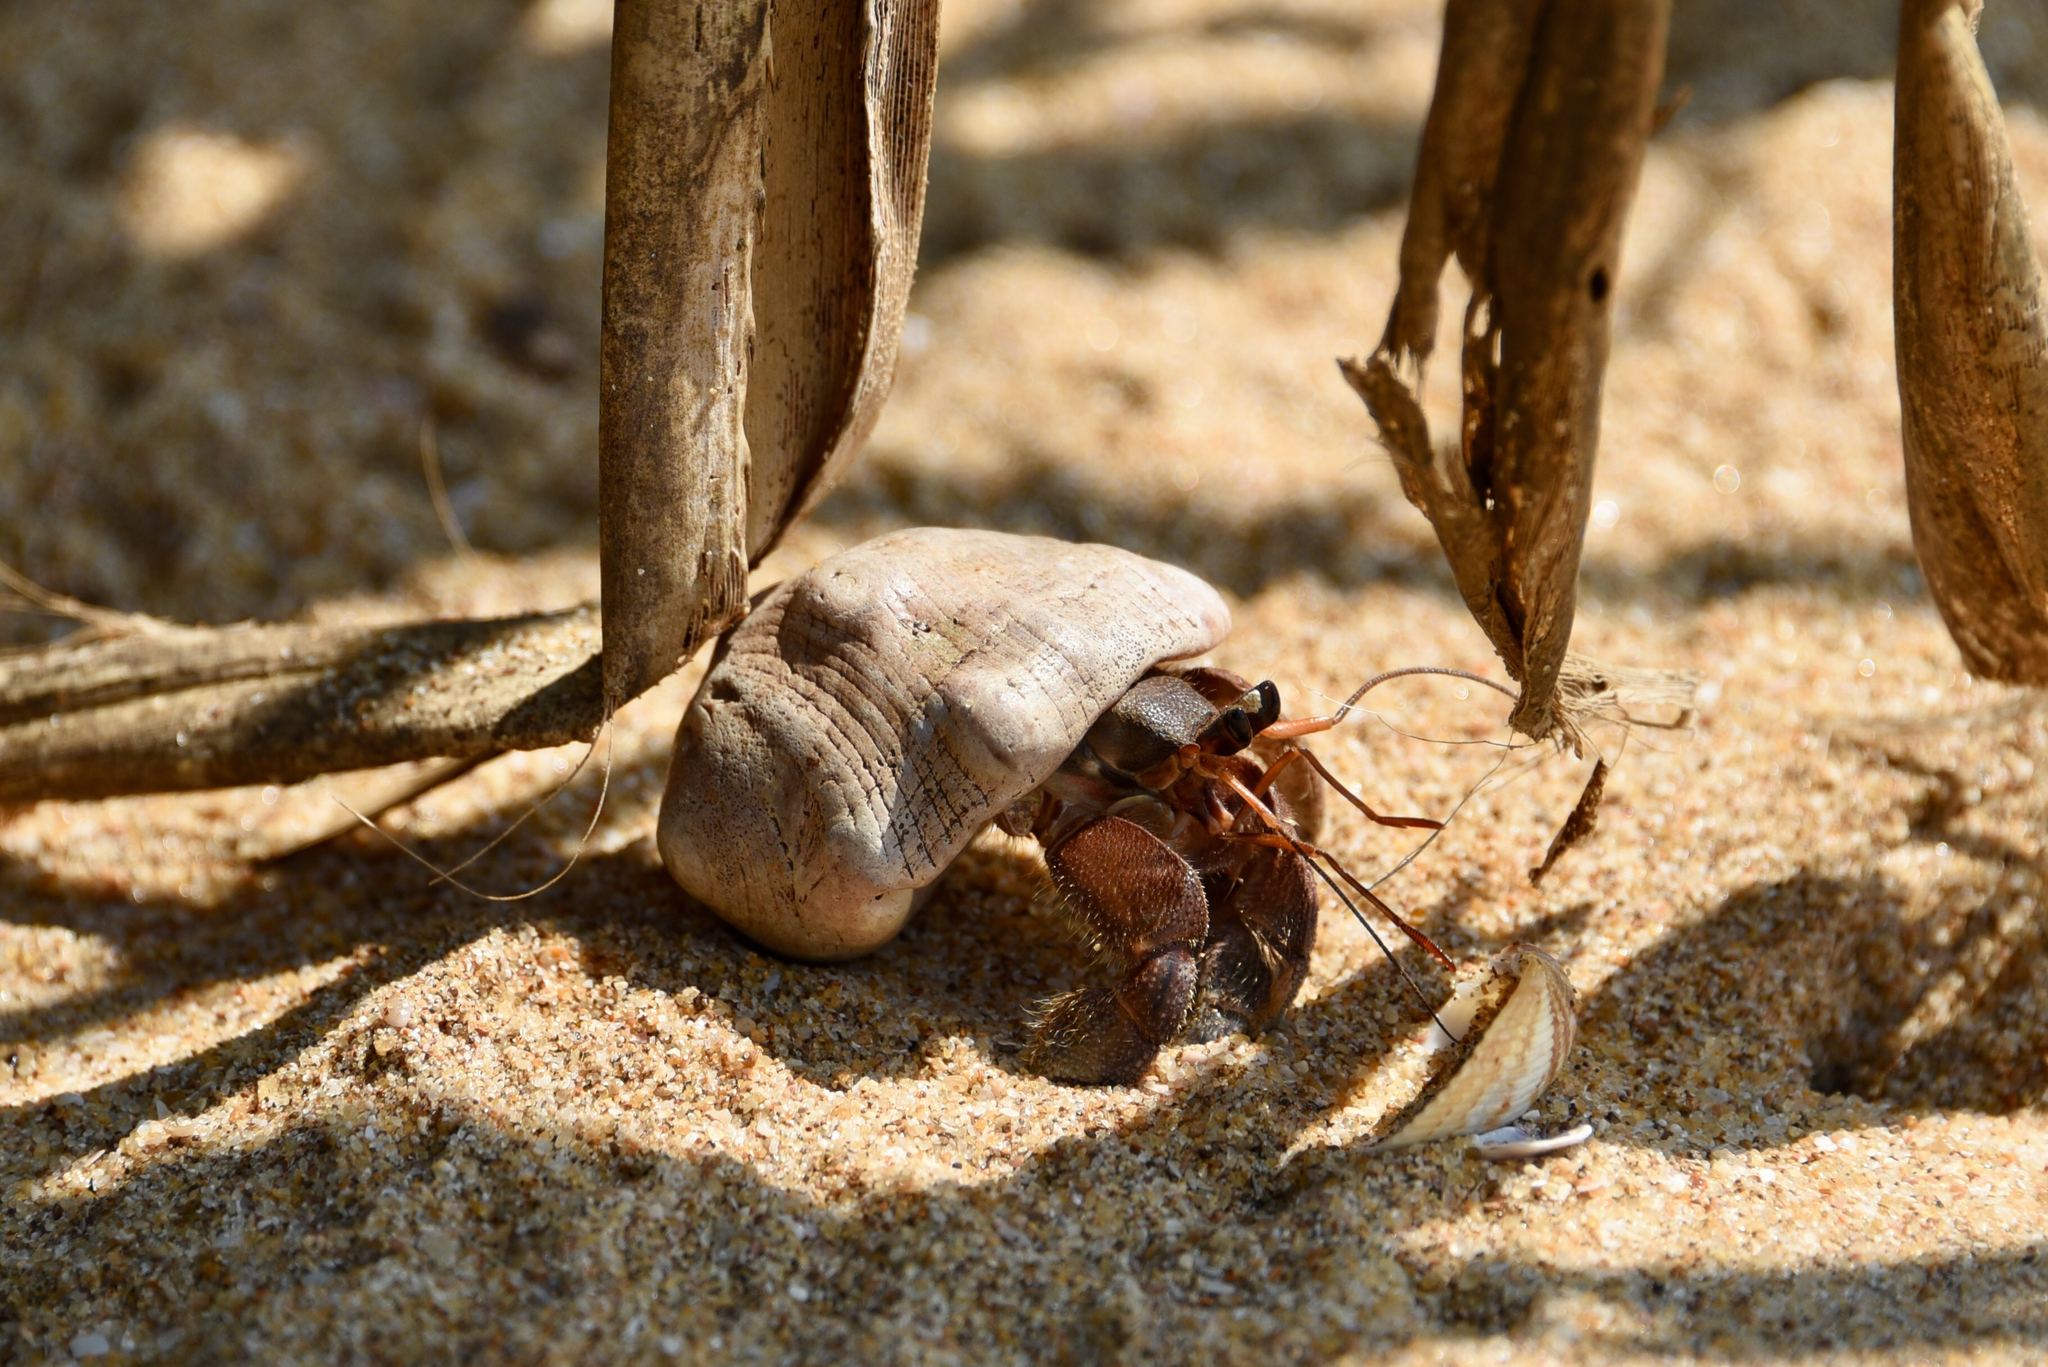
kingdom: Animalia
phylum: Arthropoda
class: Malacostraca
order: Decapoda
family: Coenobitidae
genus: Coenobita
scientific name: Coenobita rugosus
